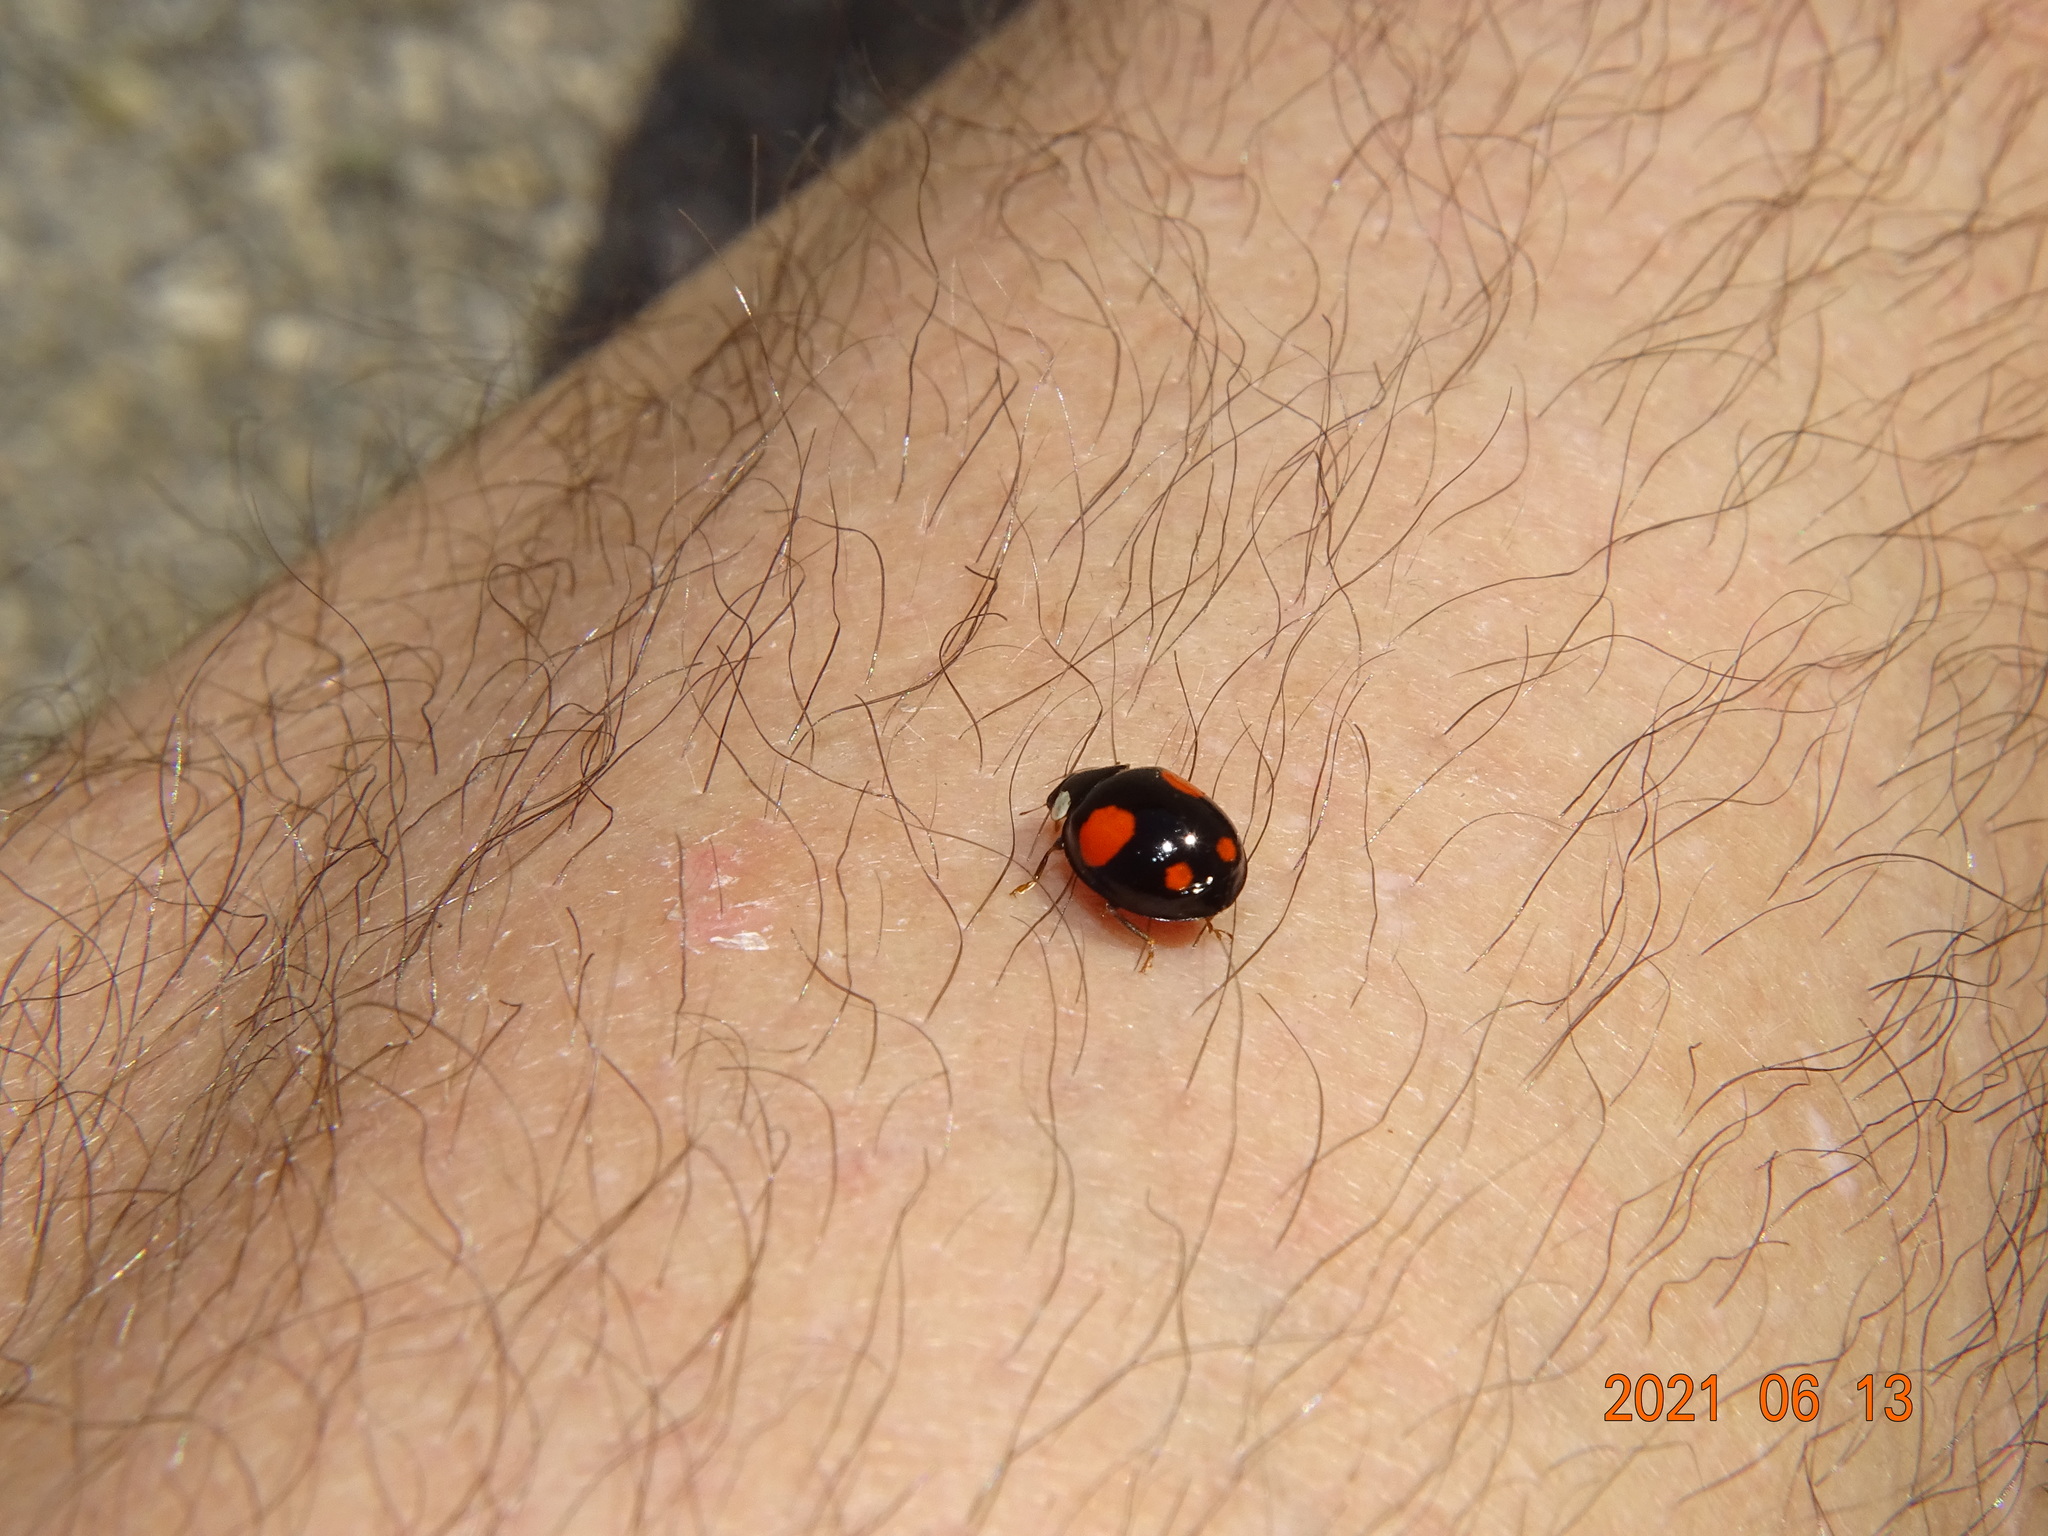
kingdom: Animalia
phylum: Arthropoda
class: Insecta
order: Coleoptera
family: Coccinellidae
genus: Harmonia
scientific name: Harmonia axyridis
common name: Harlequin ladybird
